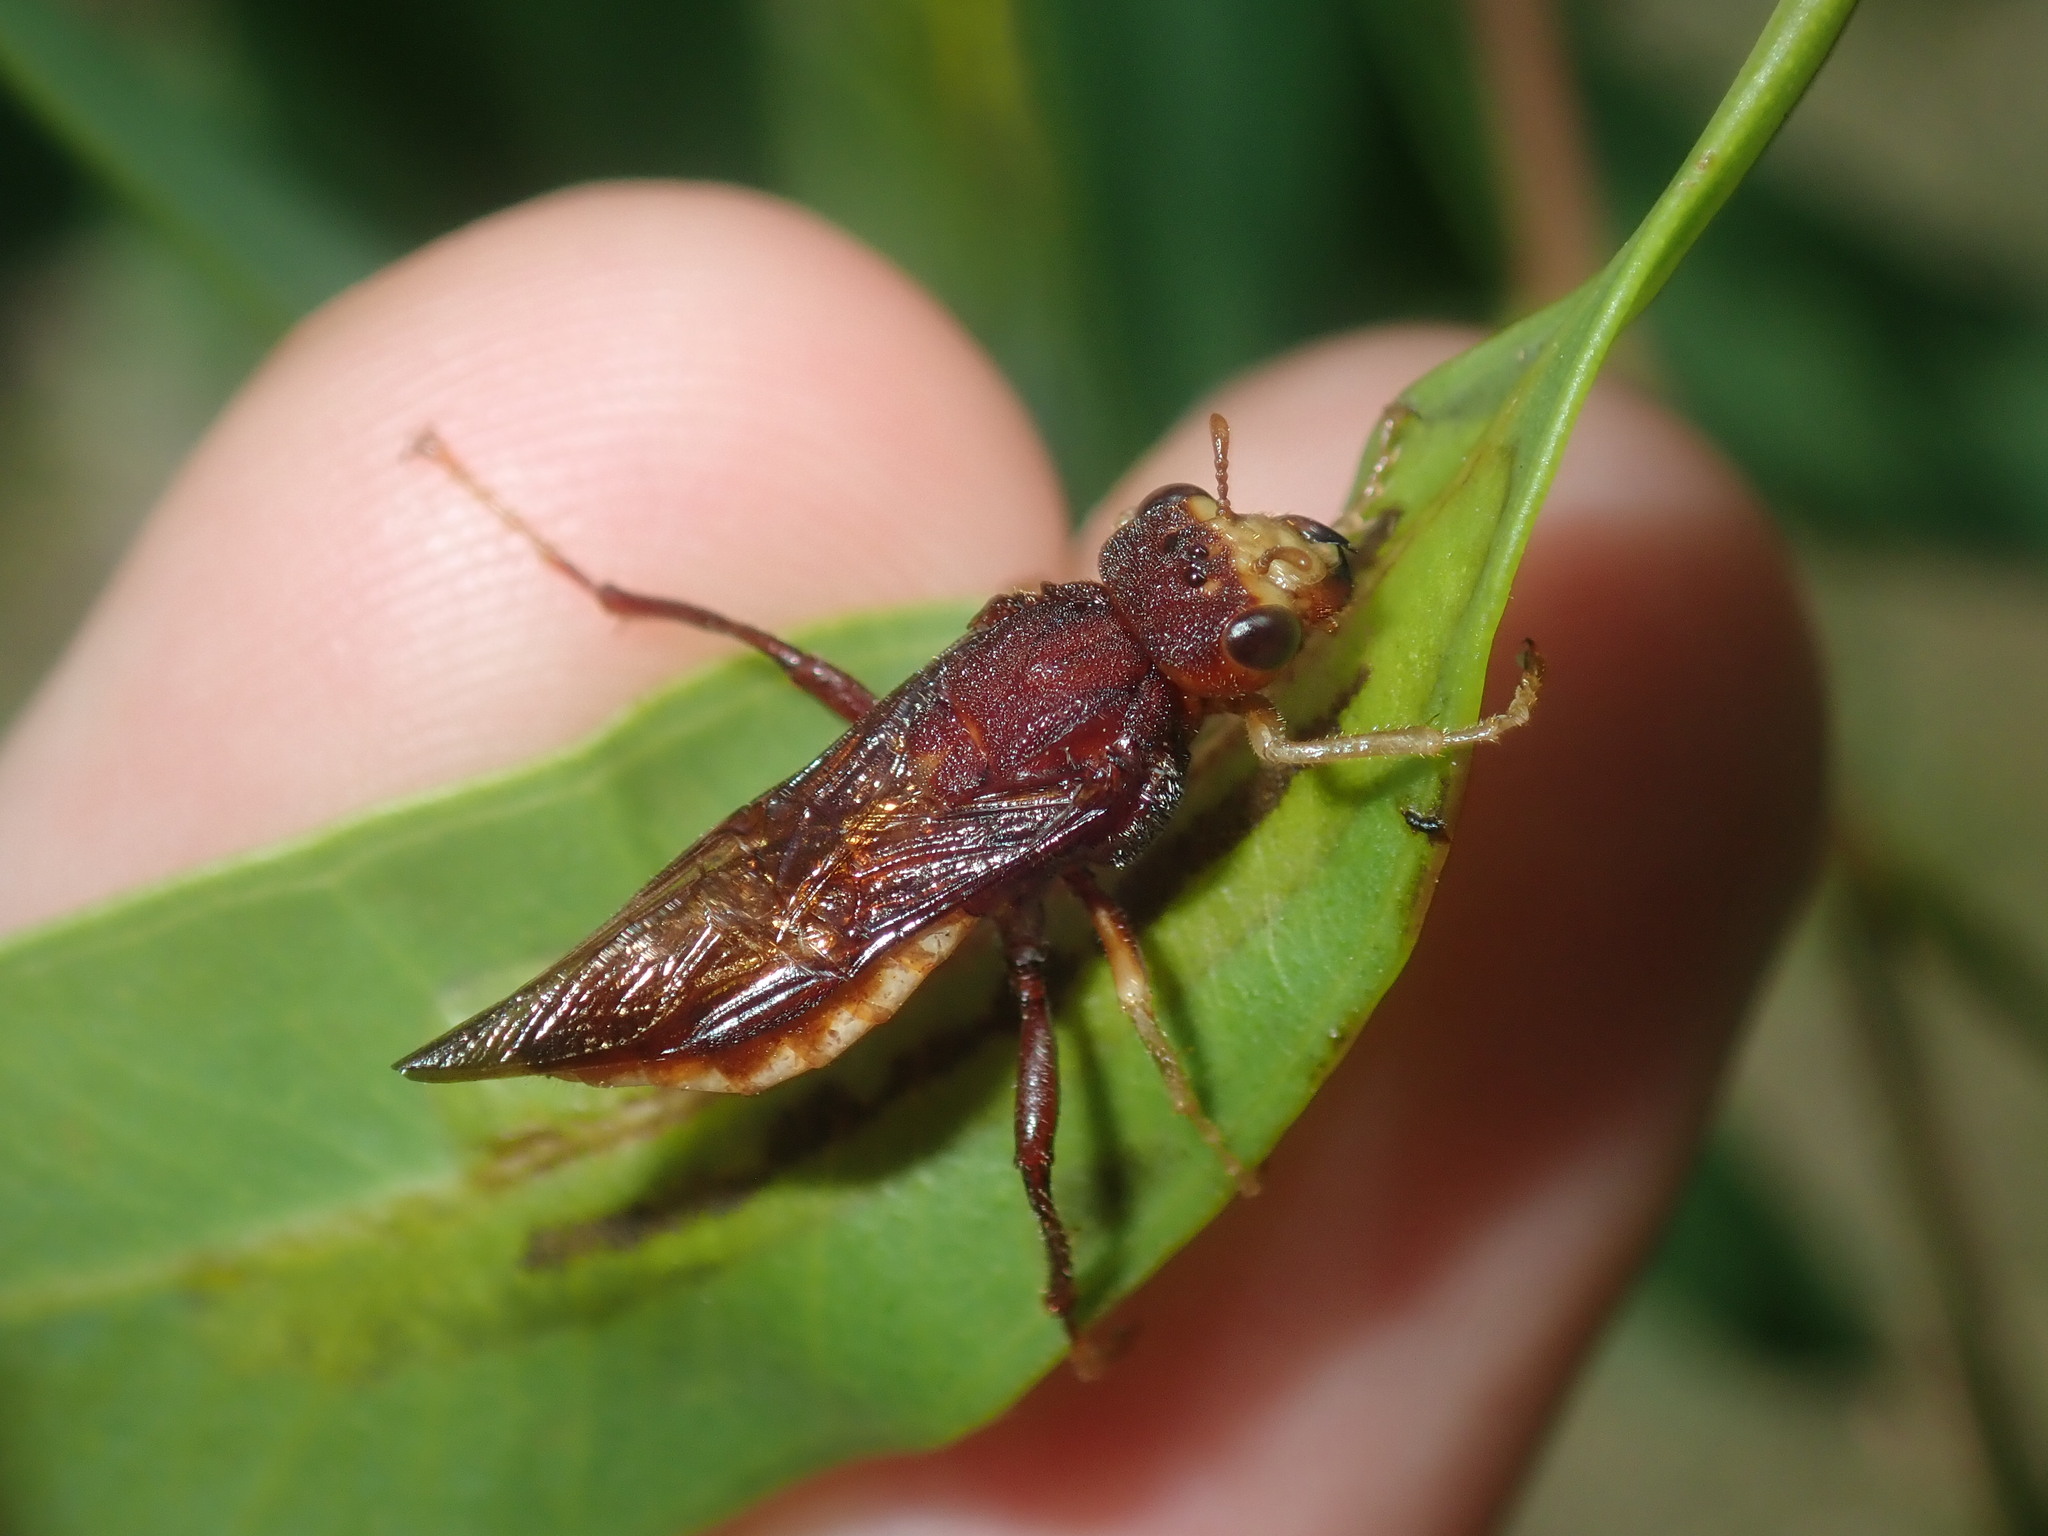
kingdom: Animalia
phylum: Arthropoda
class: Insecta
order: Hymenoptera
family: Pergidae
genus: Pseudoperga
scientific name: Pseudoperga
